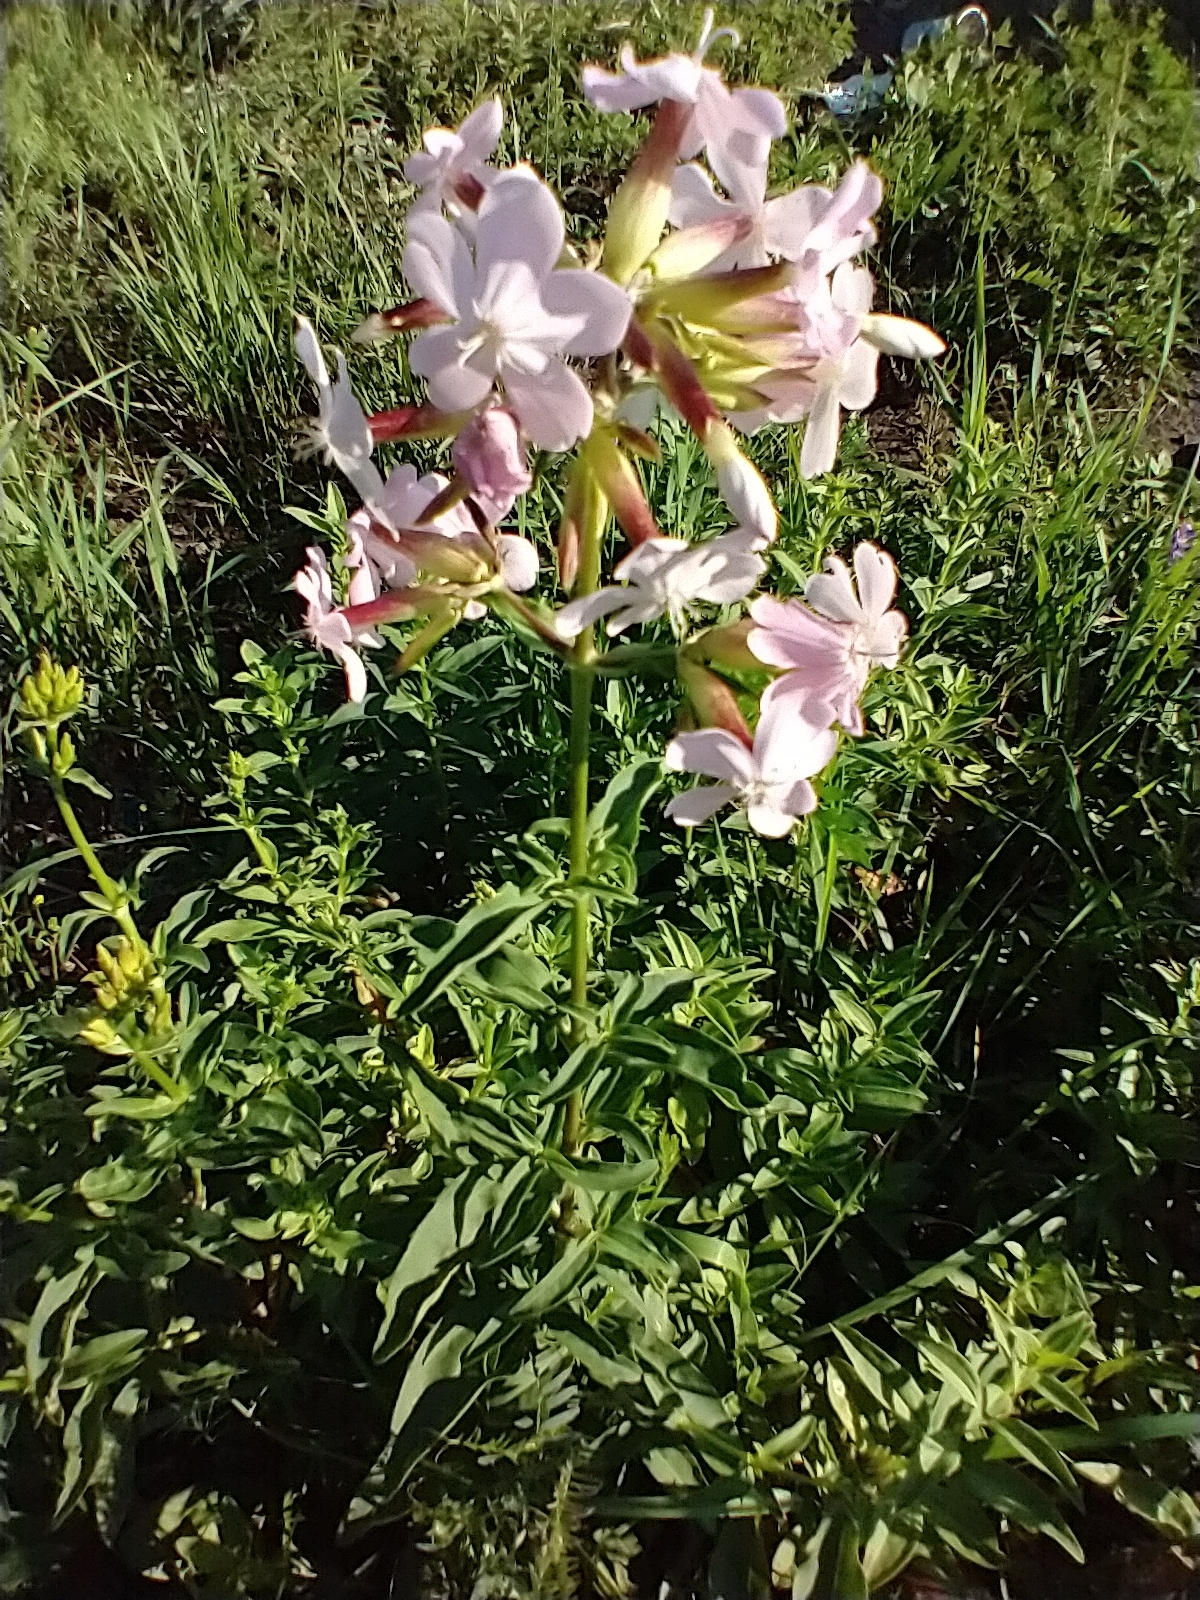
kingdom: Plantae
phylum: Tracheophyta
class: Magnoliopsida
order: Caryophyllales
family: Caryophyllaceae
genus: Saponaria
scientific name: Saponaria officinalis
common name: Soapwort
